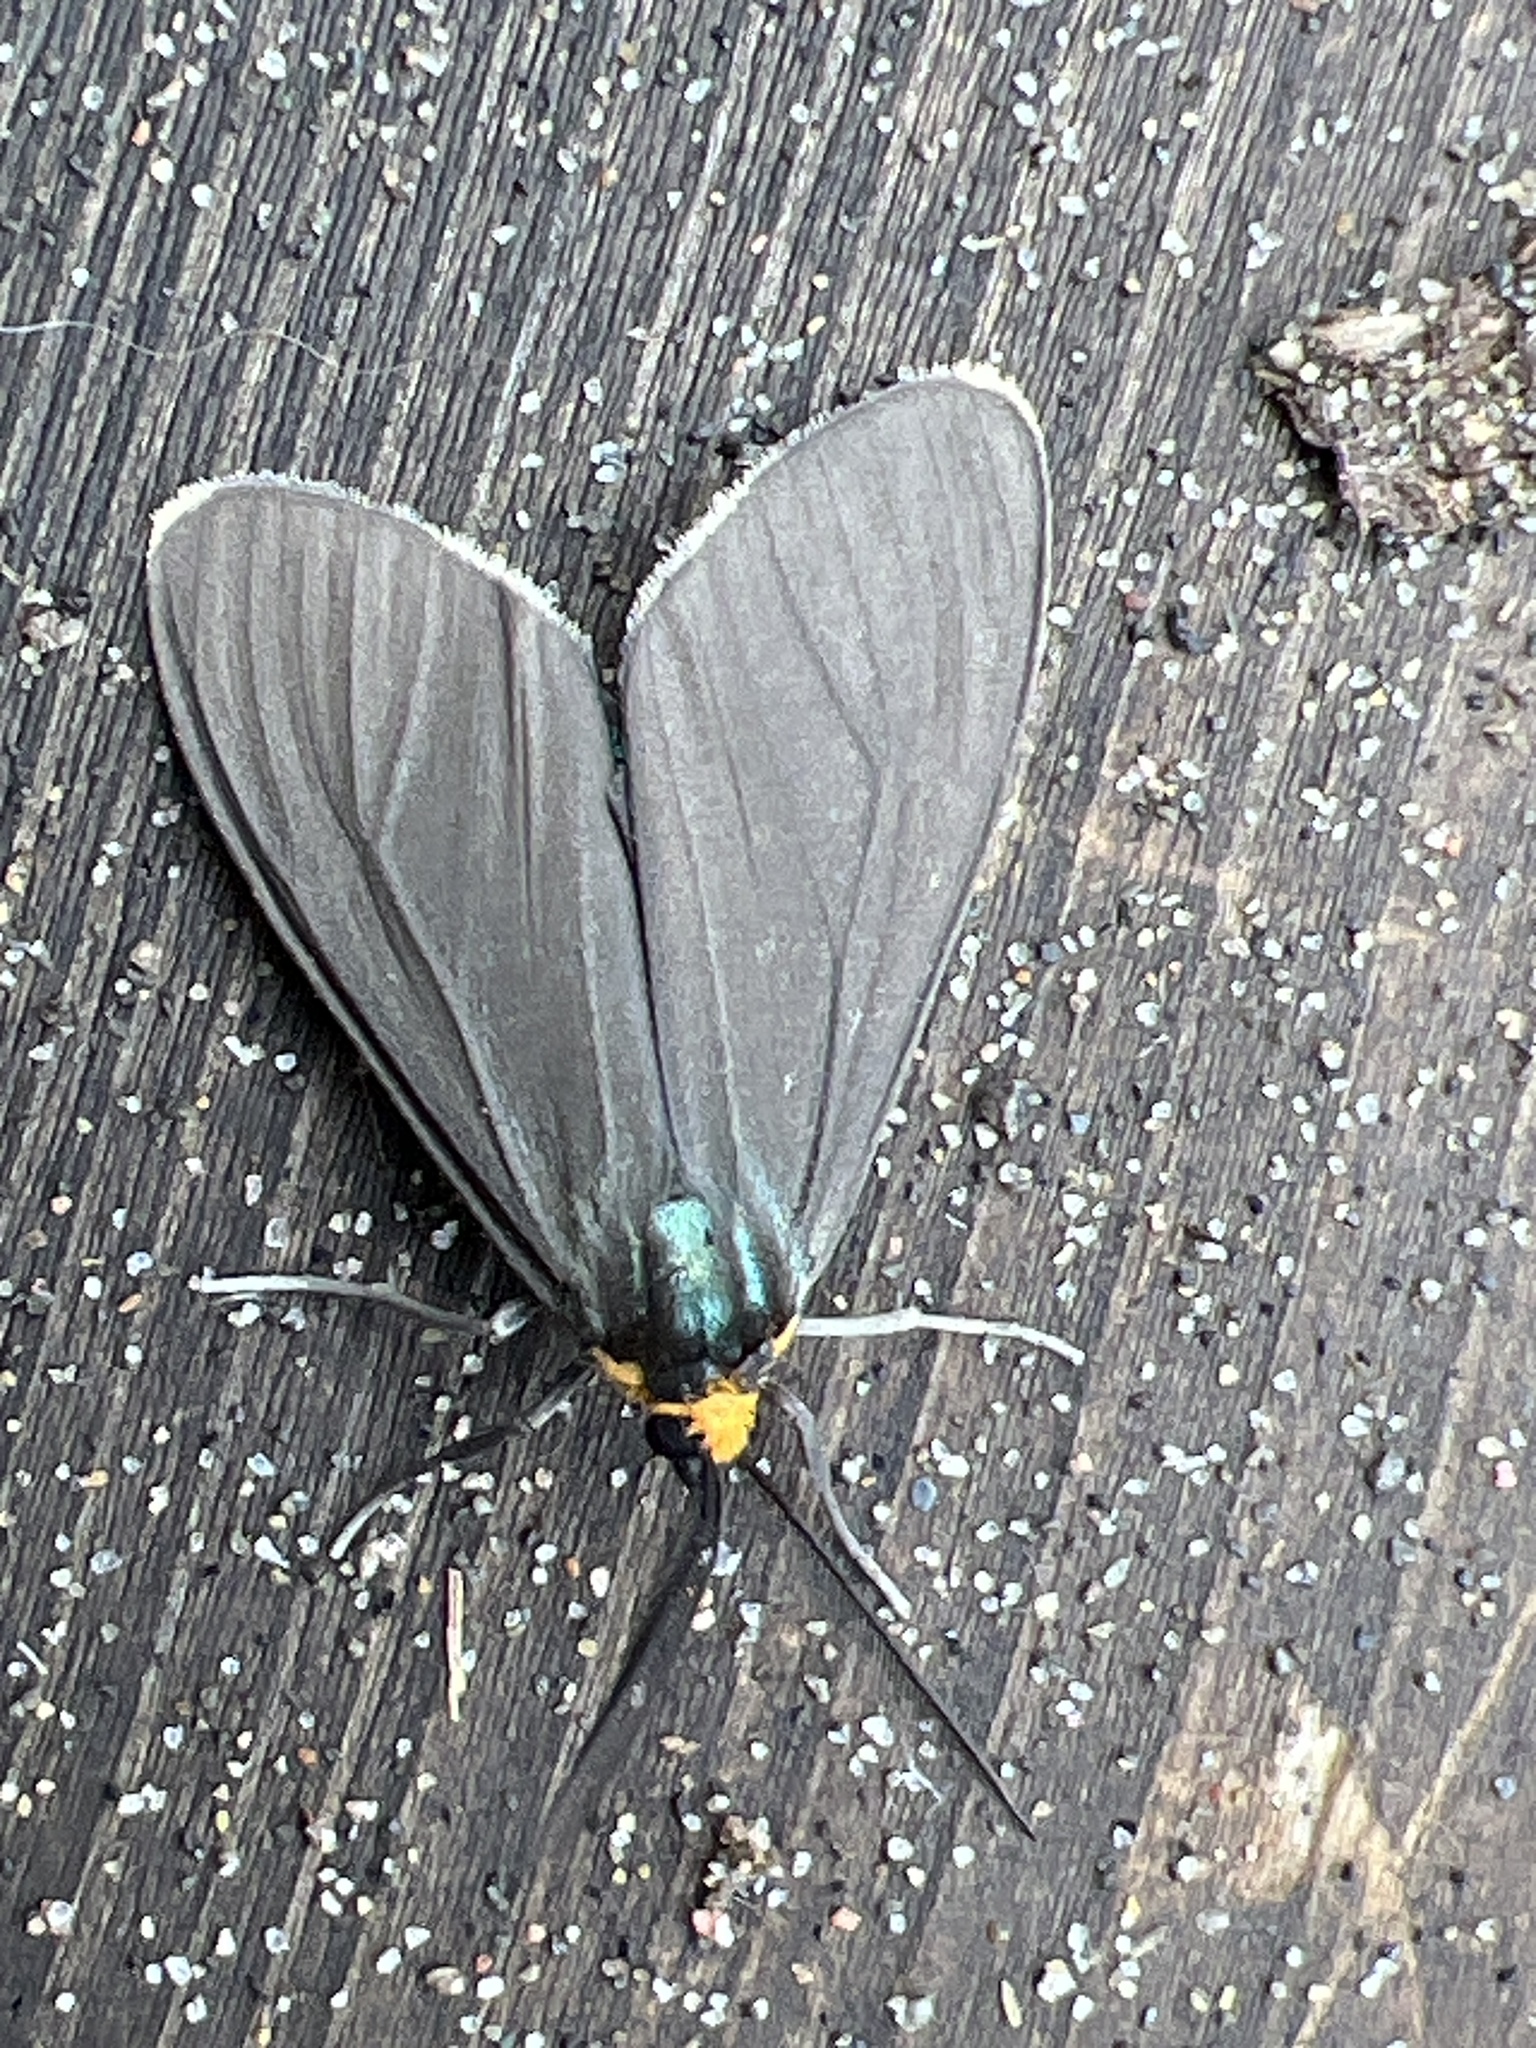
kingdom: Animalia
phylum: Arthropoda
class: Insecta
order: Lepidoptera
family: Erebidae
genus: Ctenucha
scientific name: Ctenucha virginica
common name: Virginia ctenucha moth
